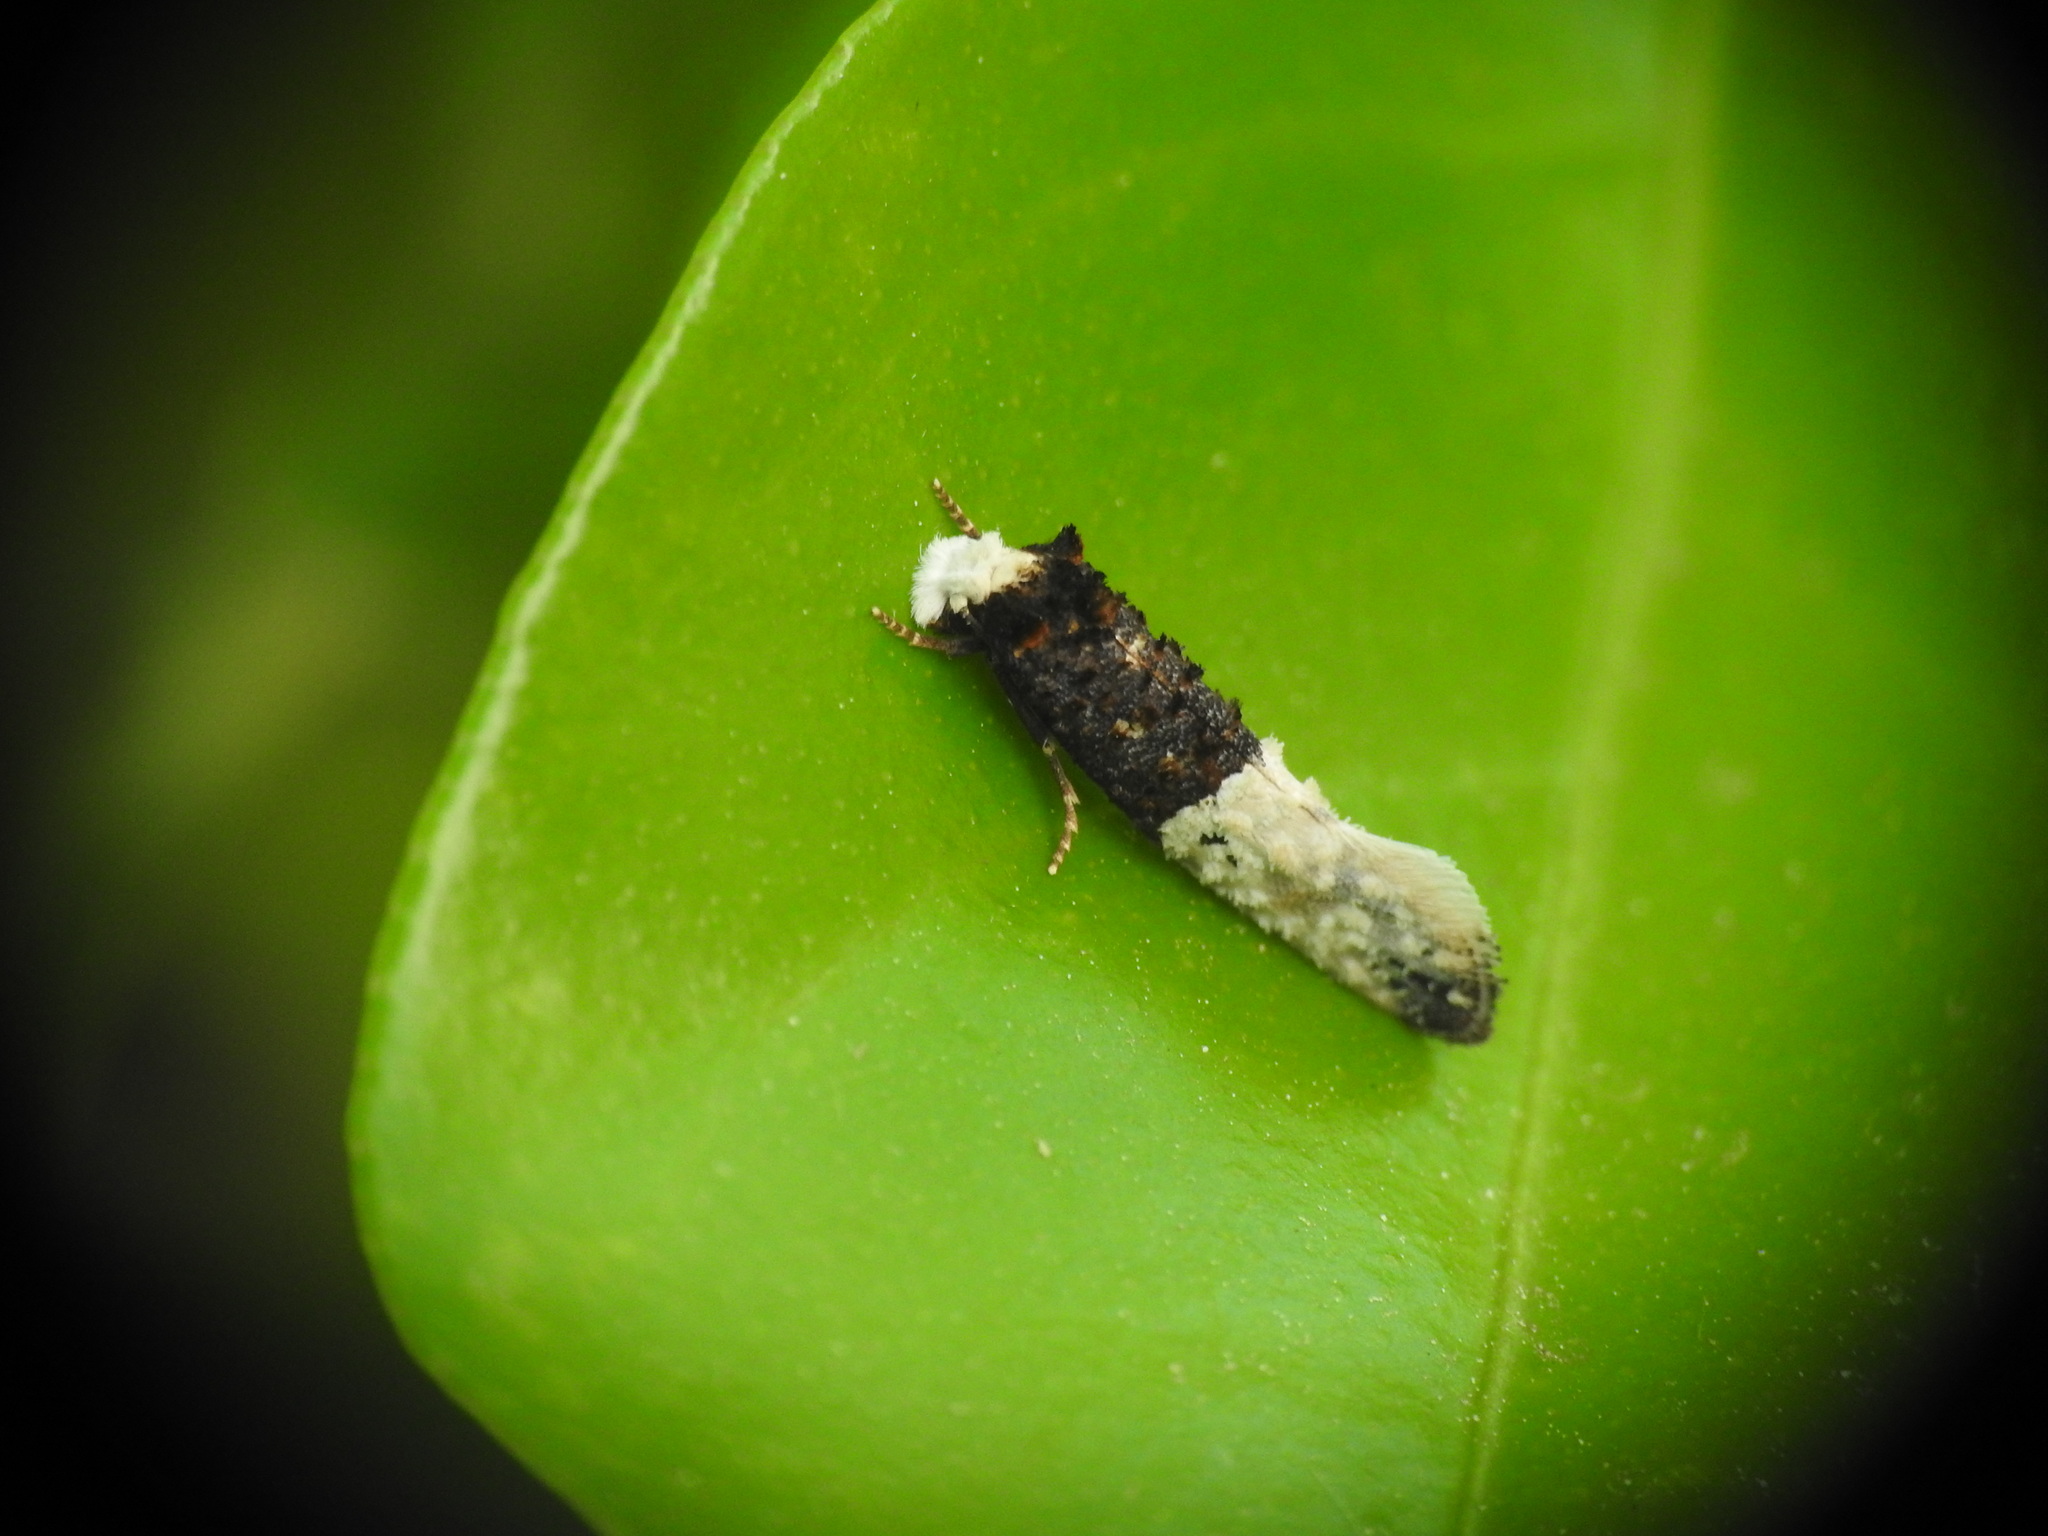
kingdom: Animalia
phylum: Arthropoda
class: Insecta
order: Lepidoptera
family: Tineidae
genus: Trichophaga
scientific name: Trichophaga bipartitella
